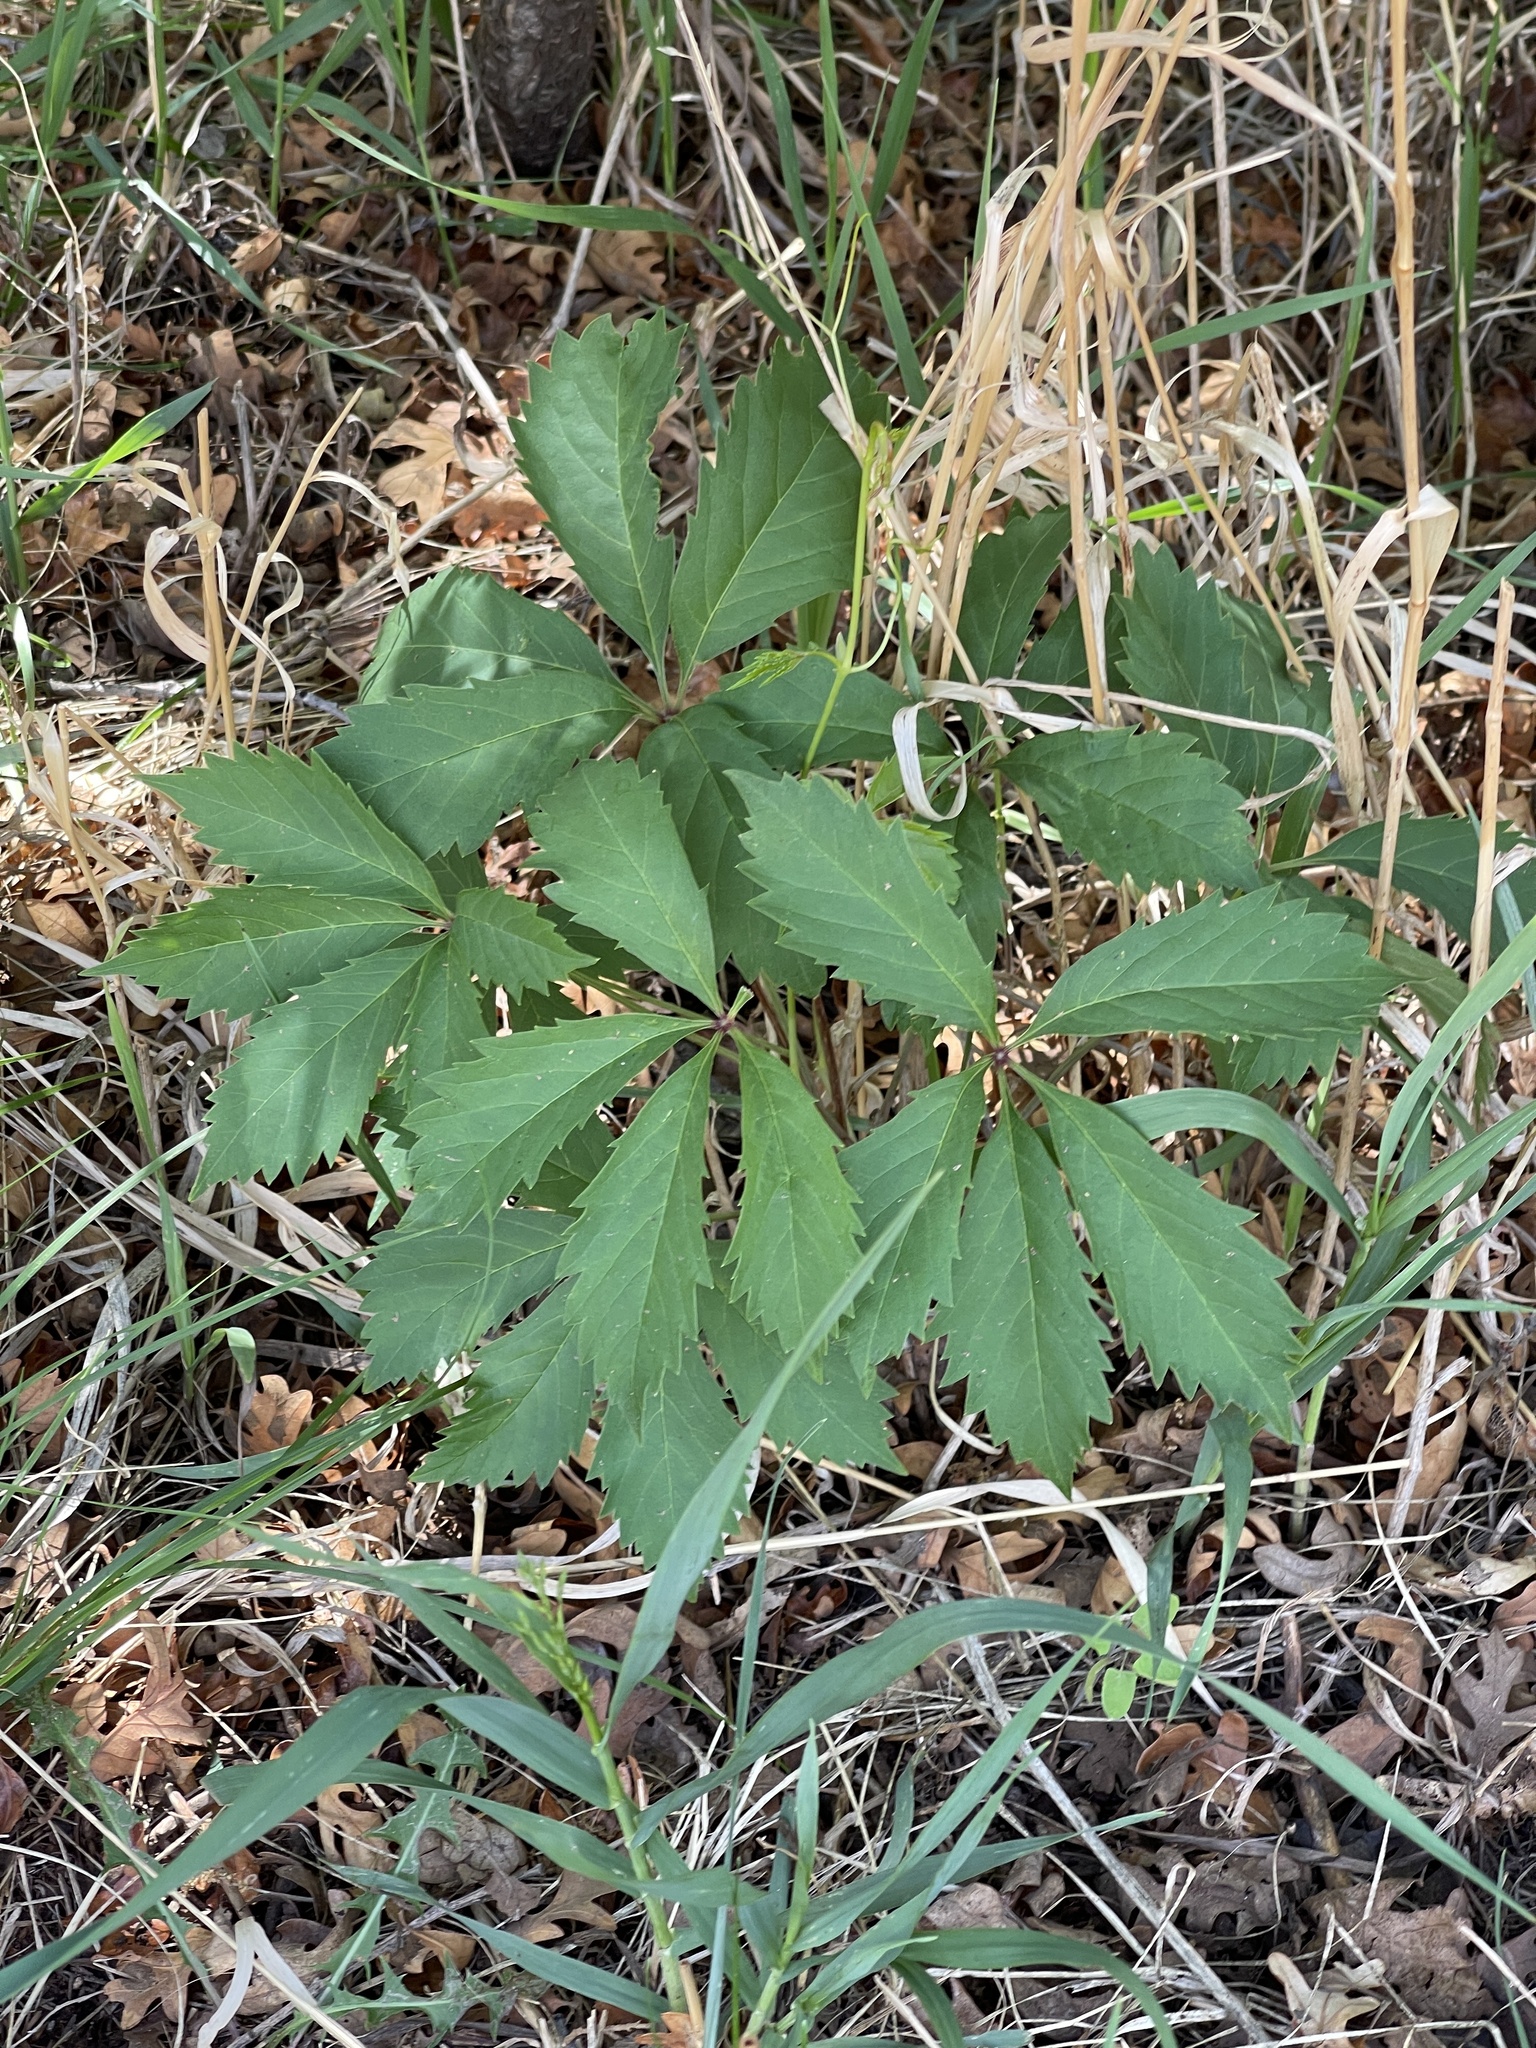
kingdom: Plantae
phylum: Tracheophyta
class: Magnoliopsida
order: Vitales
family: Vitaceae
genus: Parthenocissus
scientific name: Parthenocissus inserta
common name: False virginia-creeper
